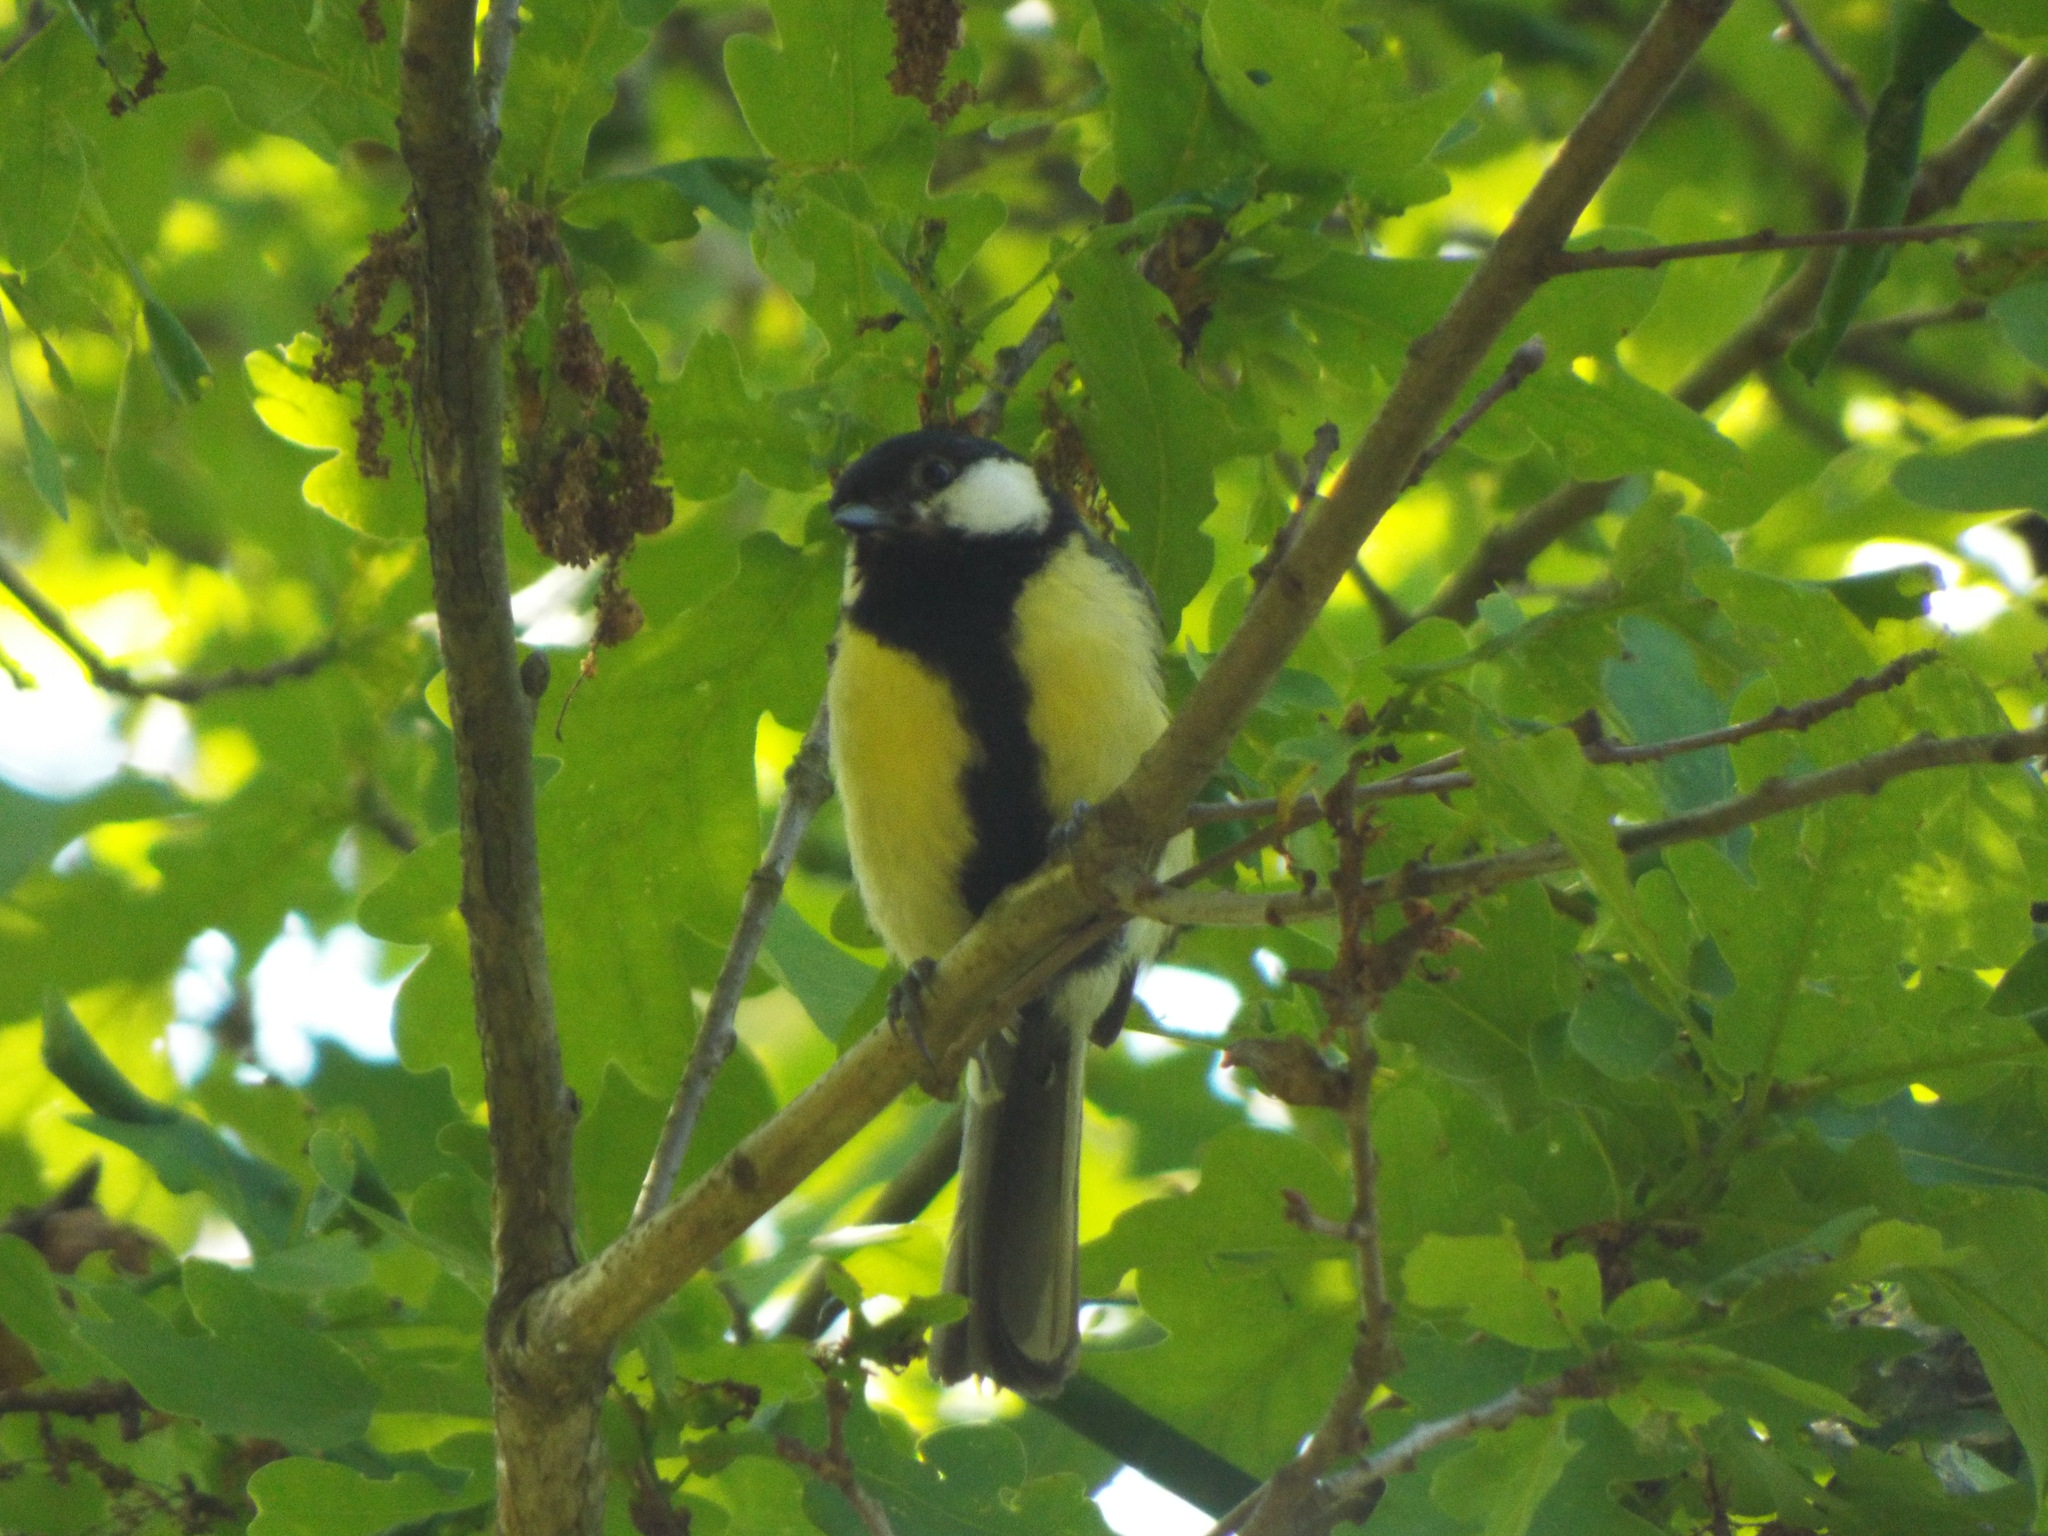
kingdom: Animalia
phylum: Chordata
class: Aves
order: Passeriformes
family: Paridae
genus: Parus
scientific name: Parus major
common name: Great tit
